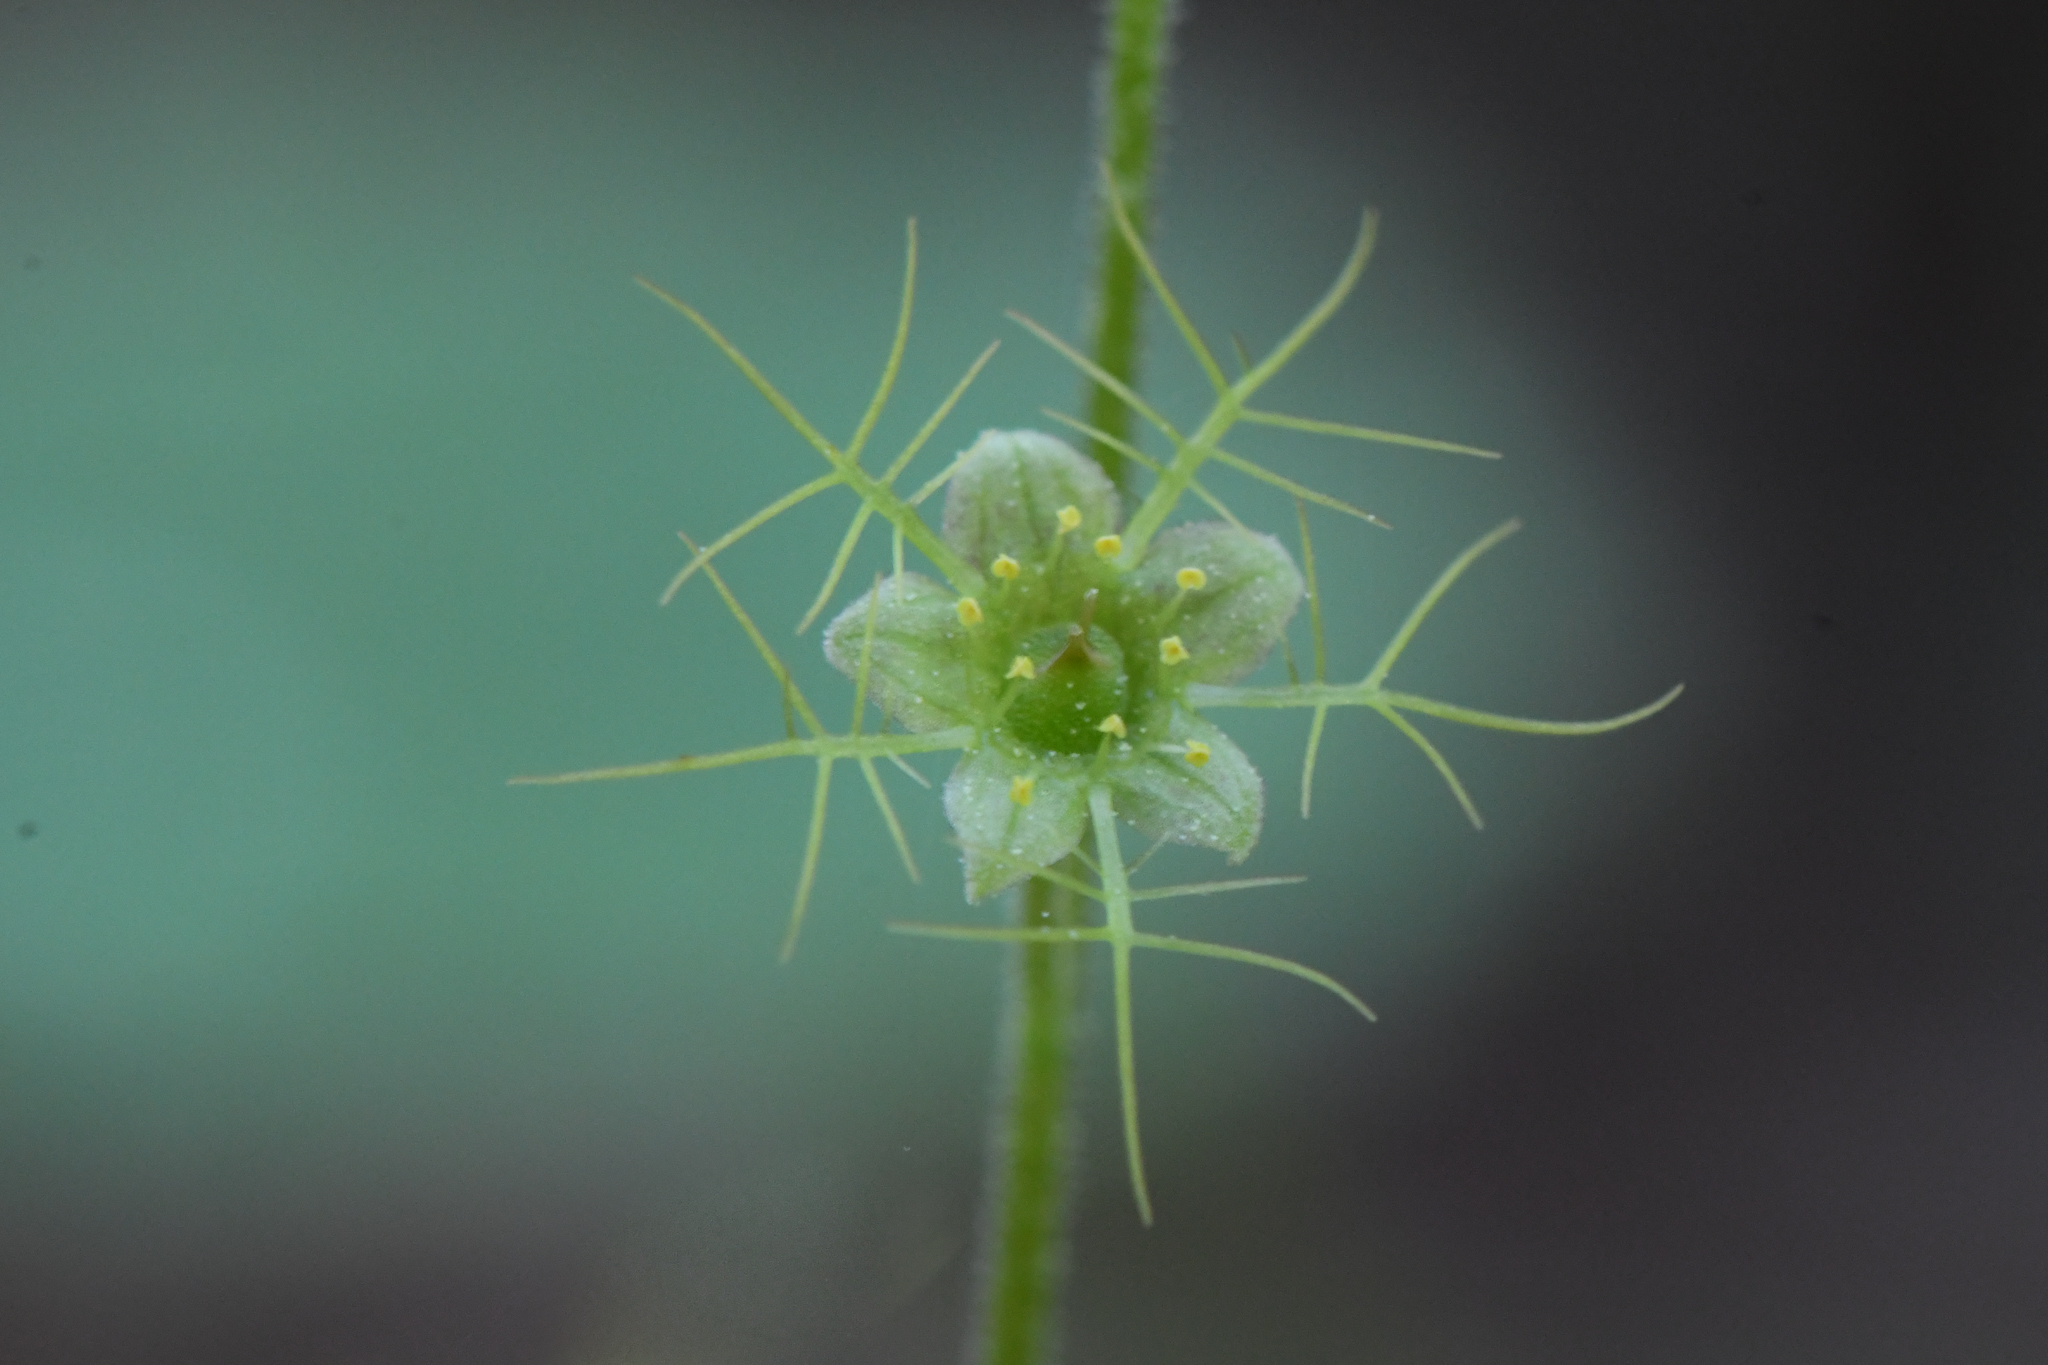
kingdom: Plantae
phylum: Tracheophyta
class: Magnoliopsida
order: Saxifragales
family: Saxifragaceae
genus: Mitella
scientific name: Mitella nuda
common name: Bare-stemmed bishop's-cap
